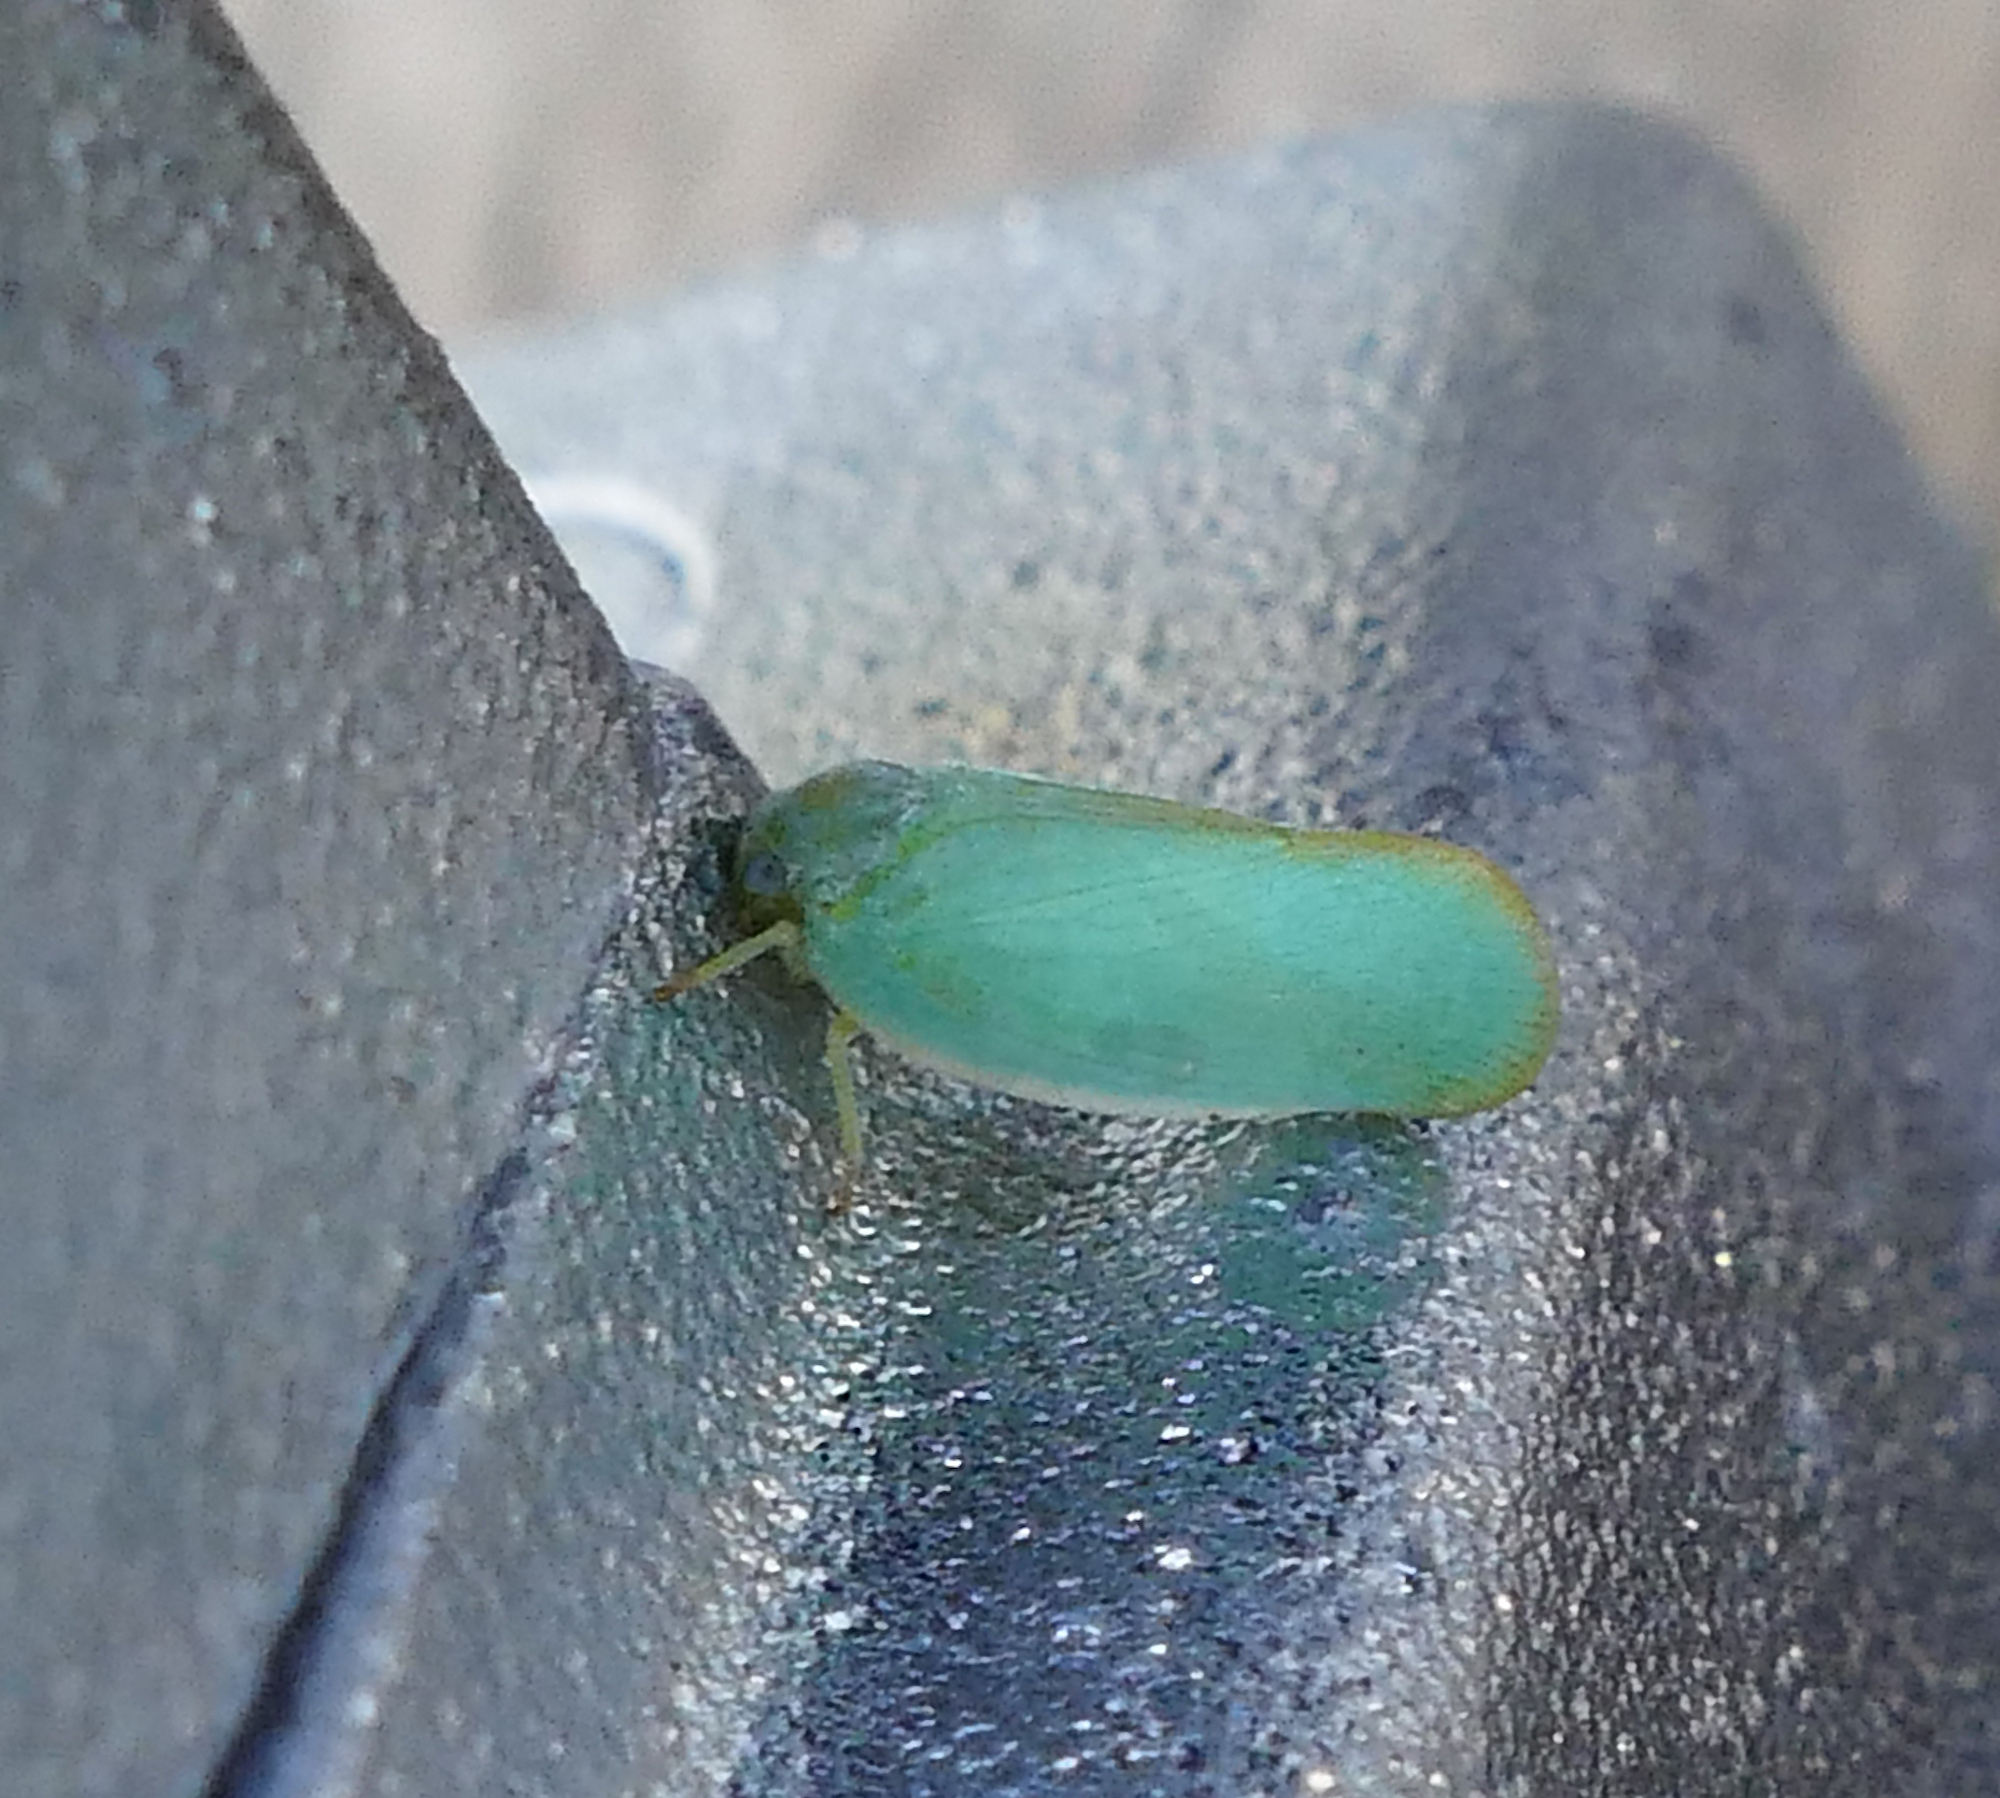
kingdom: Animalia
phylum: Arthropoda
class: Insecta
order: Hemiptera
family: Flatidae
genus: Ormenoides
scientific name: Ormenoides venusta
